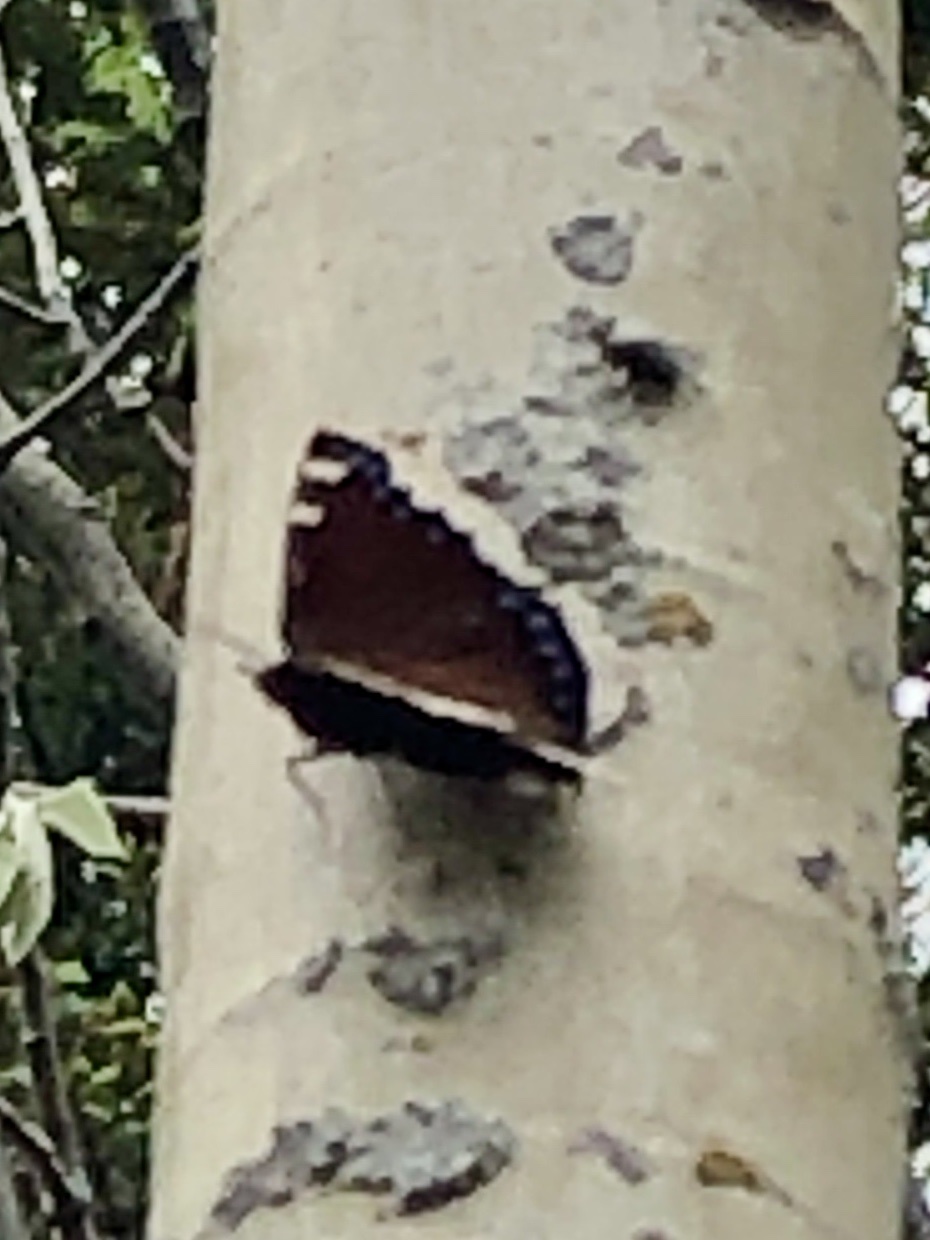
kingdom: Animalia
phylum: Arthropoda
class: Insecta
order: Lepidoptera
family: Nymphalidae
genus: Nymphalis
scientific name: Nymphalis antiopa
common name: Camberwell beauty
